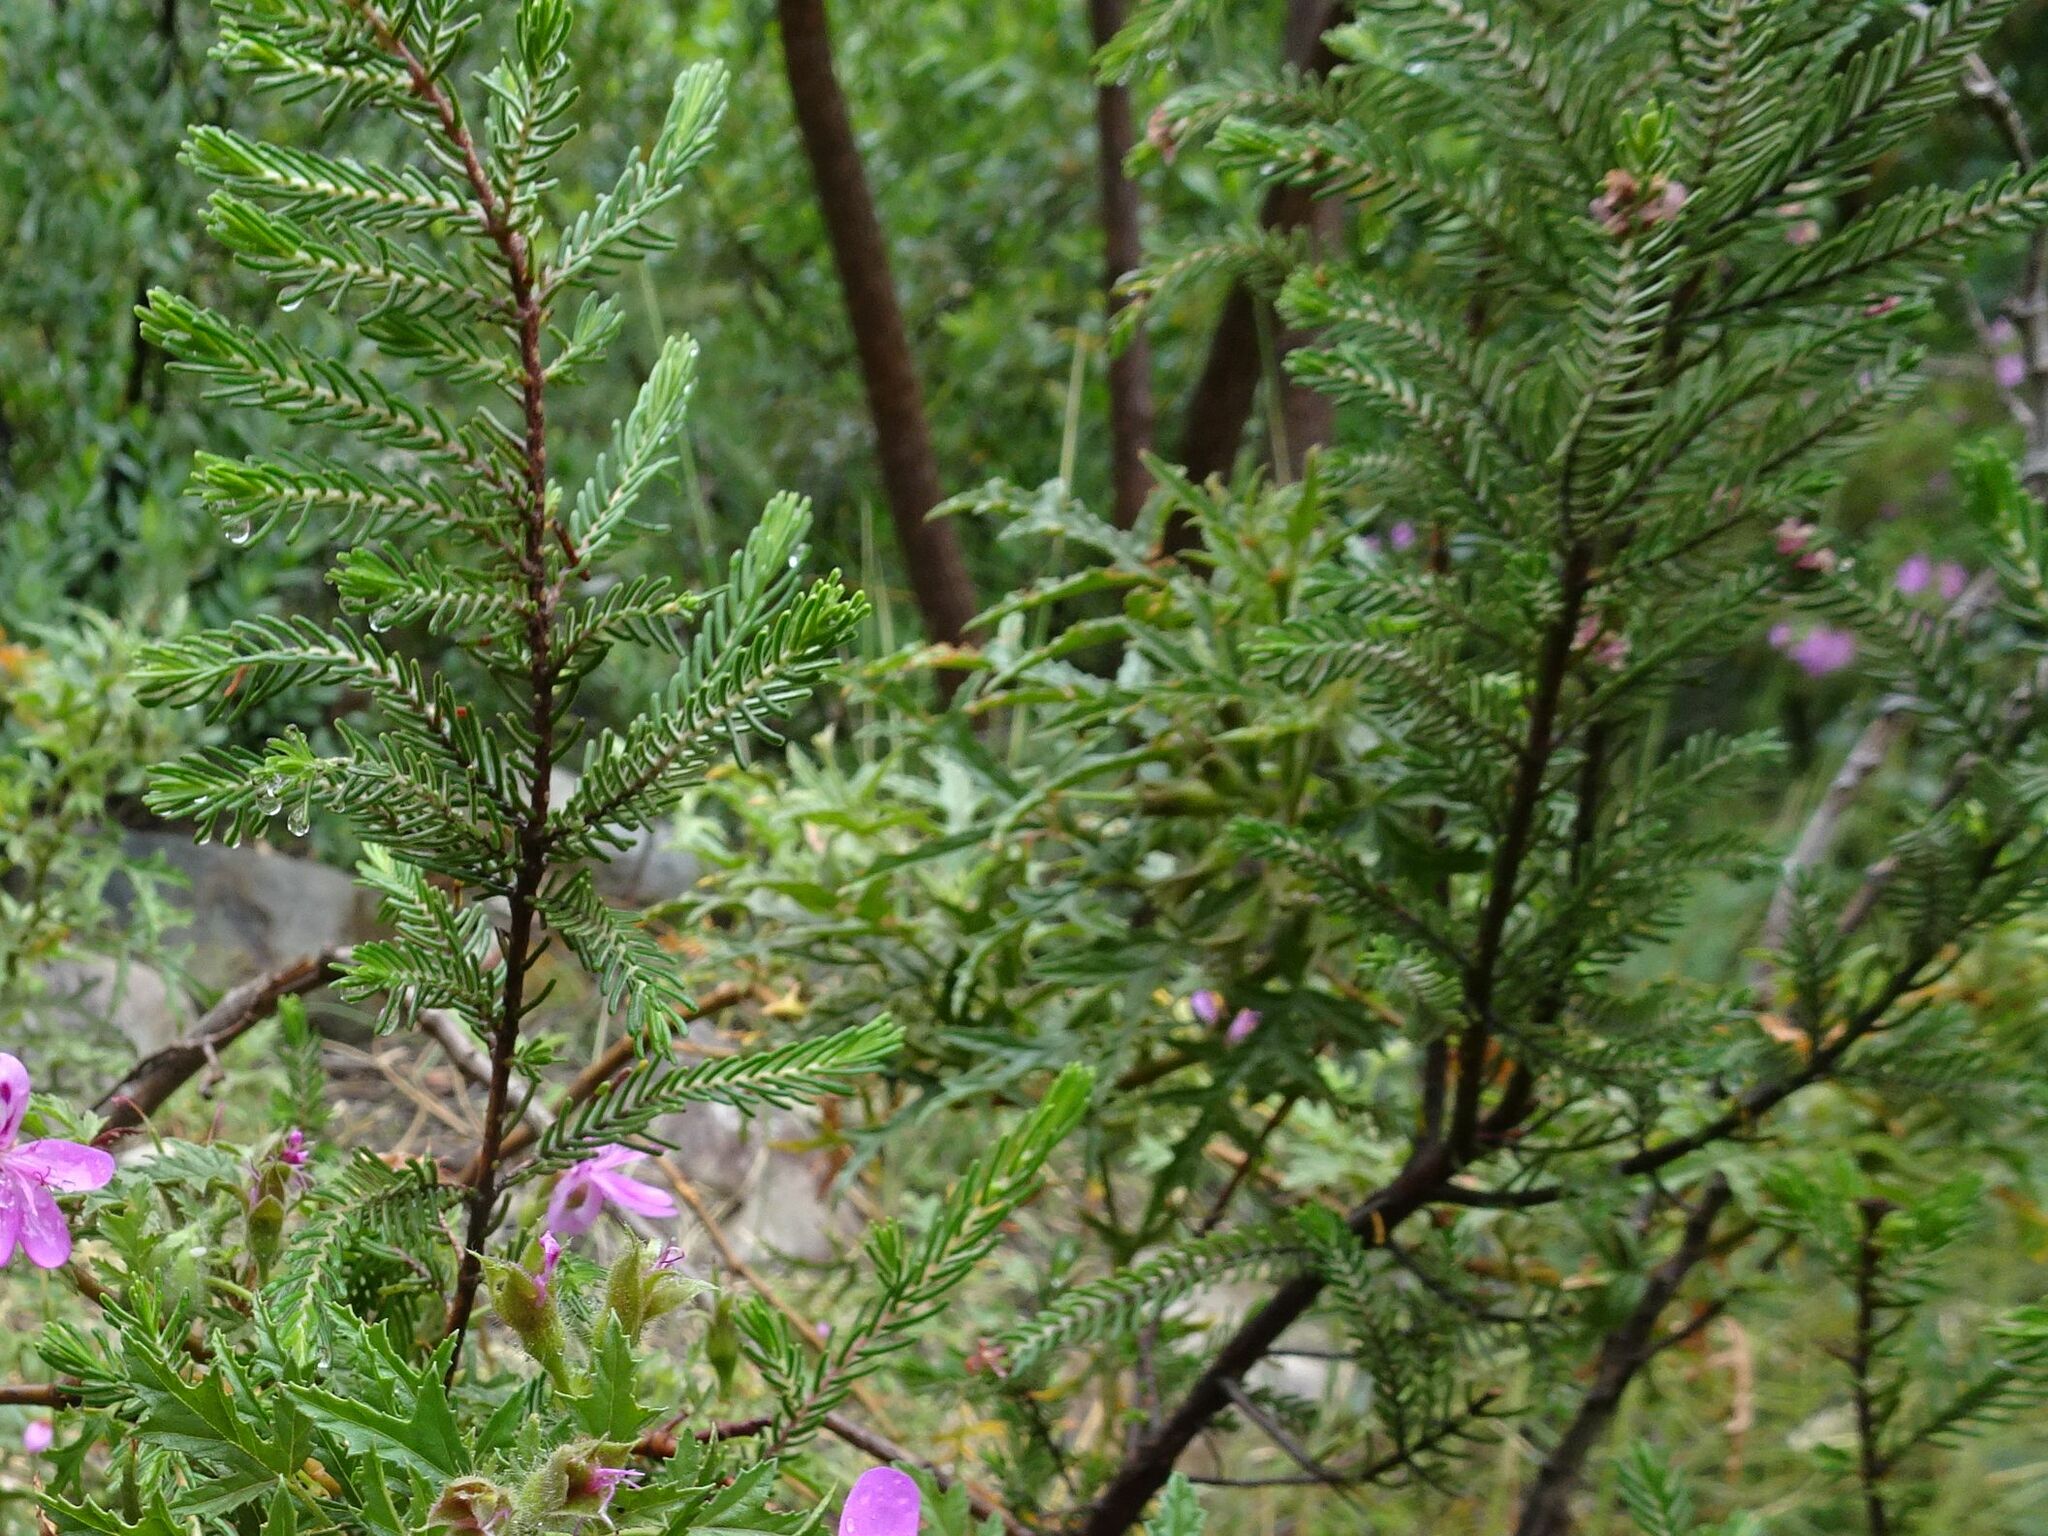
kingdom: Plantae
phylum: Tracheophyta
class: Magnoliopsida
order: Malvales
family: Thymelaeaceae
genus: Passerina
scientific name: Passerina obtusifolia
